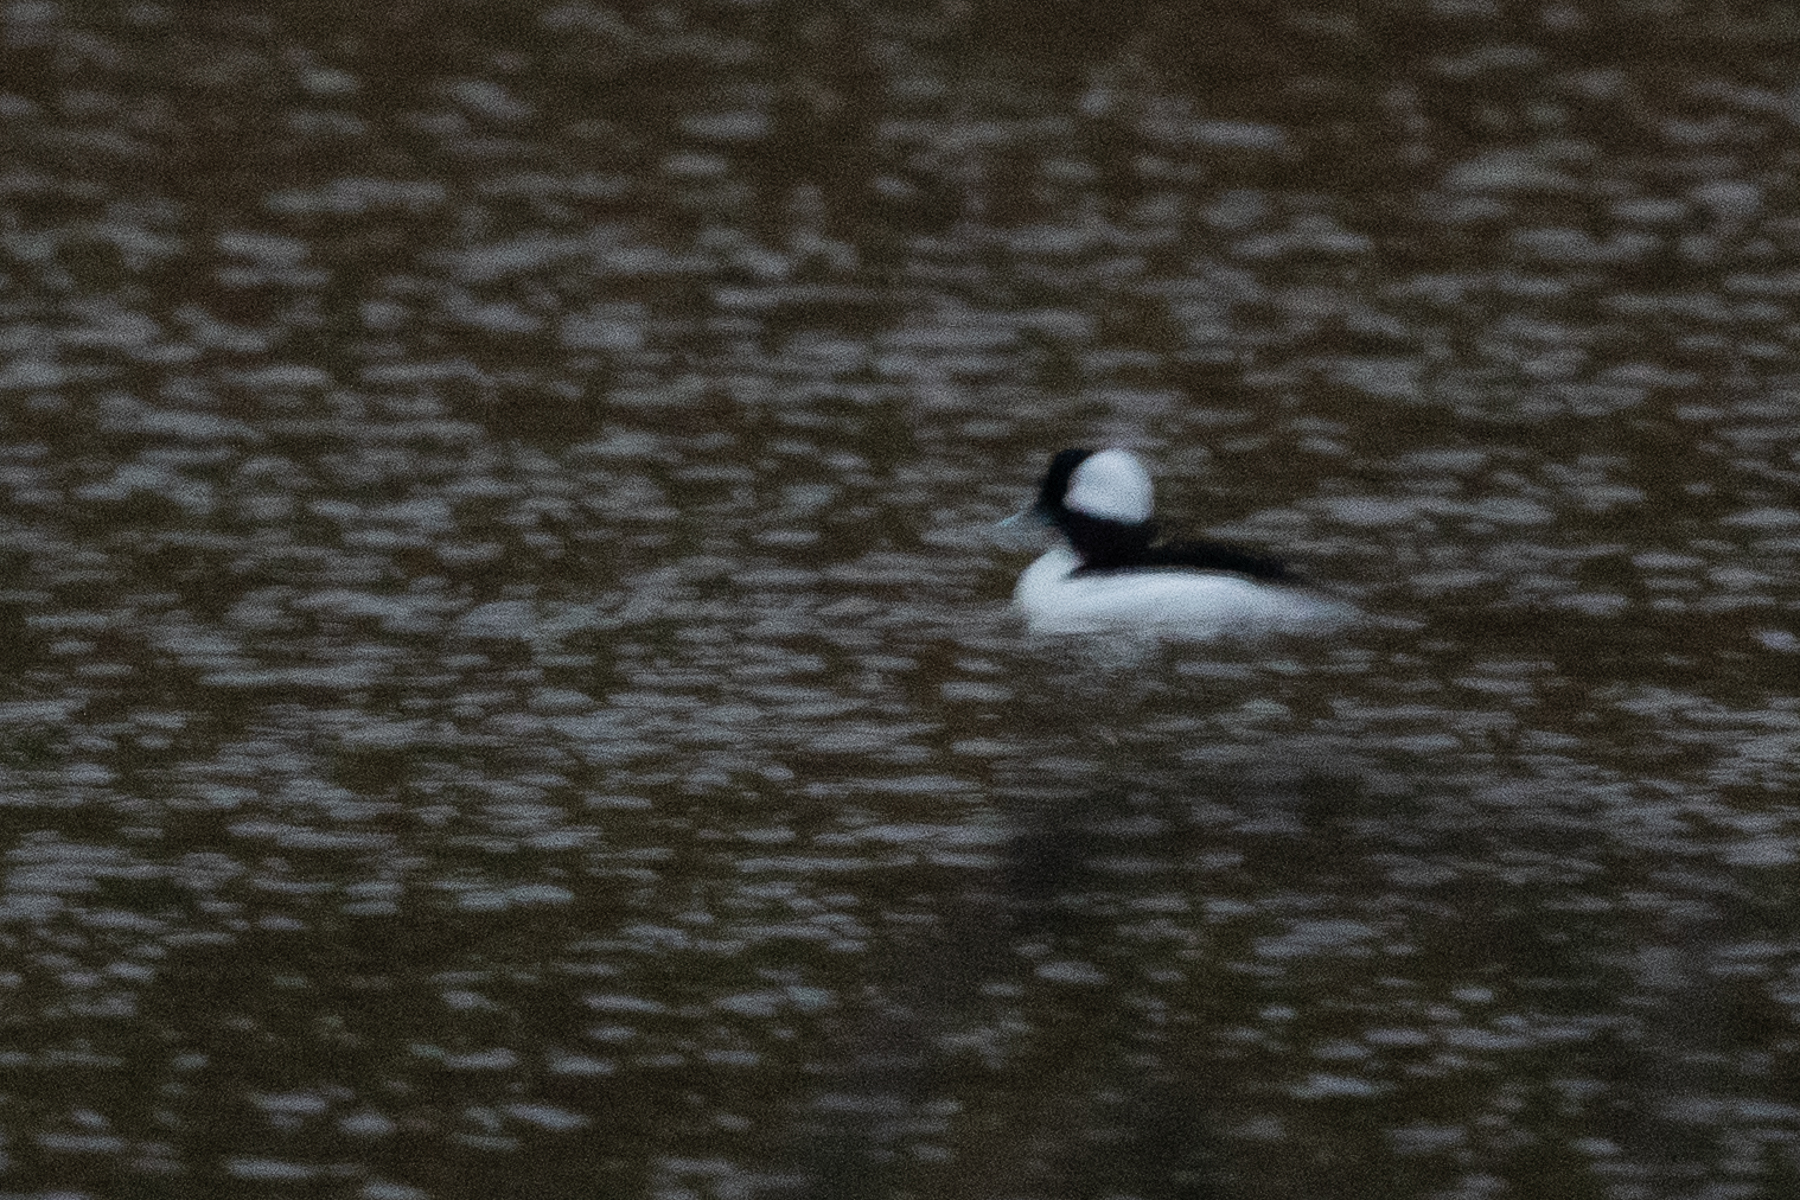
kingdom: Animalia
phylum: Chordata
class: Aves
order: Anseriformes
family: Anatidae
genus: Bucephala
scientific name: Bucephala albeola
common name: Bufflehead
